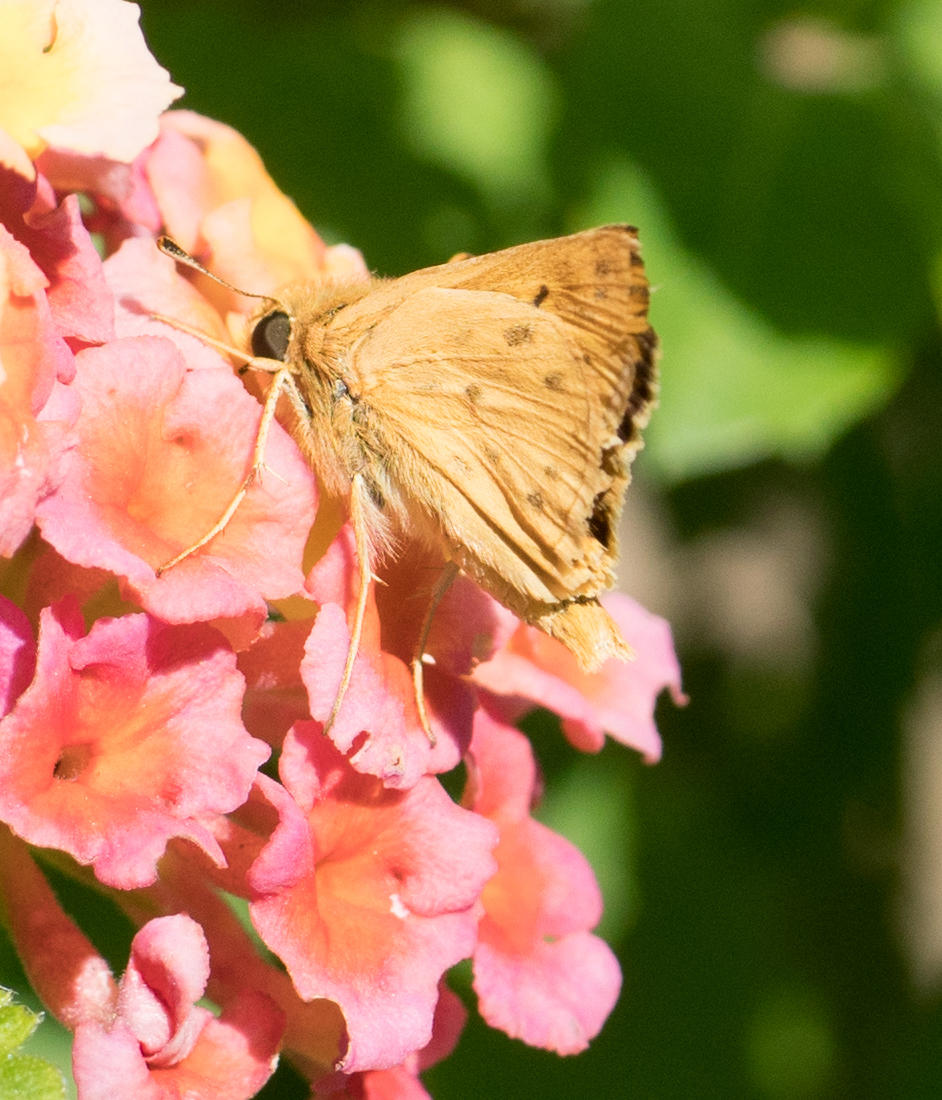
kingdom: Animalia
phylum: Arthropoda
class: Insecta
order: Lepidoptera
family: Hesperiidae
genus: Hylephila
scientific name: Hylephila phyleus
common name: Fiery skipper
